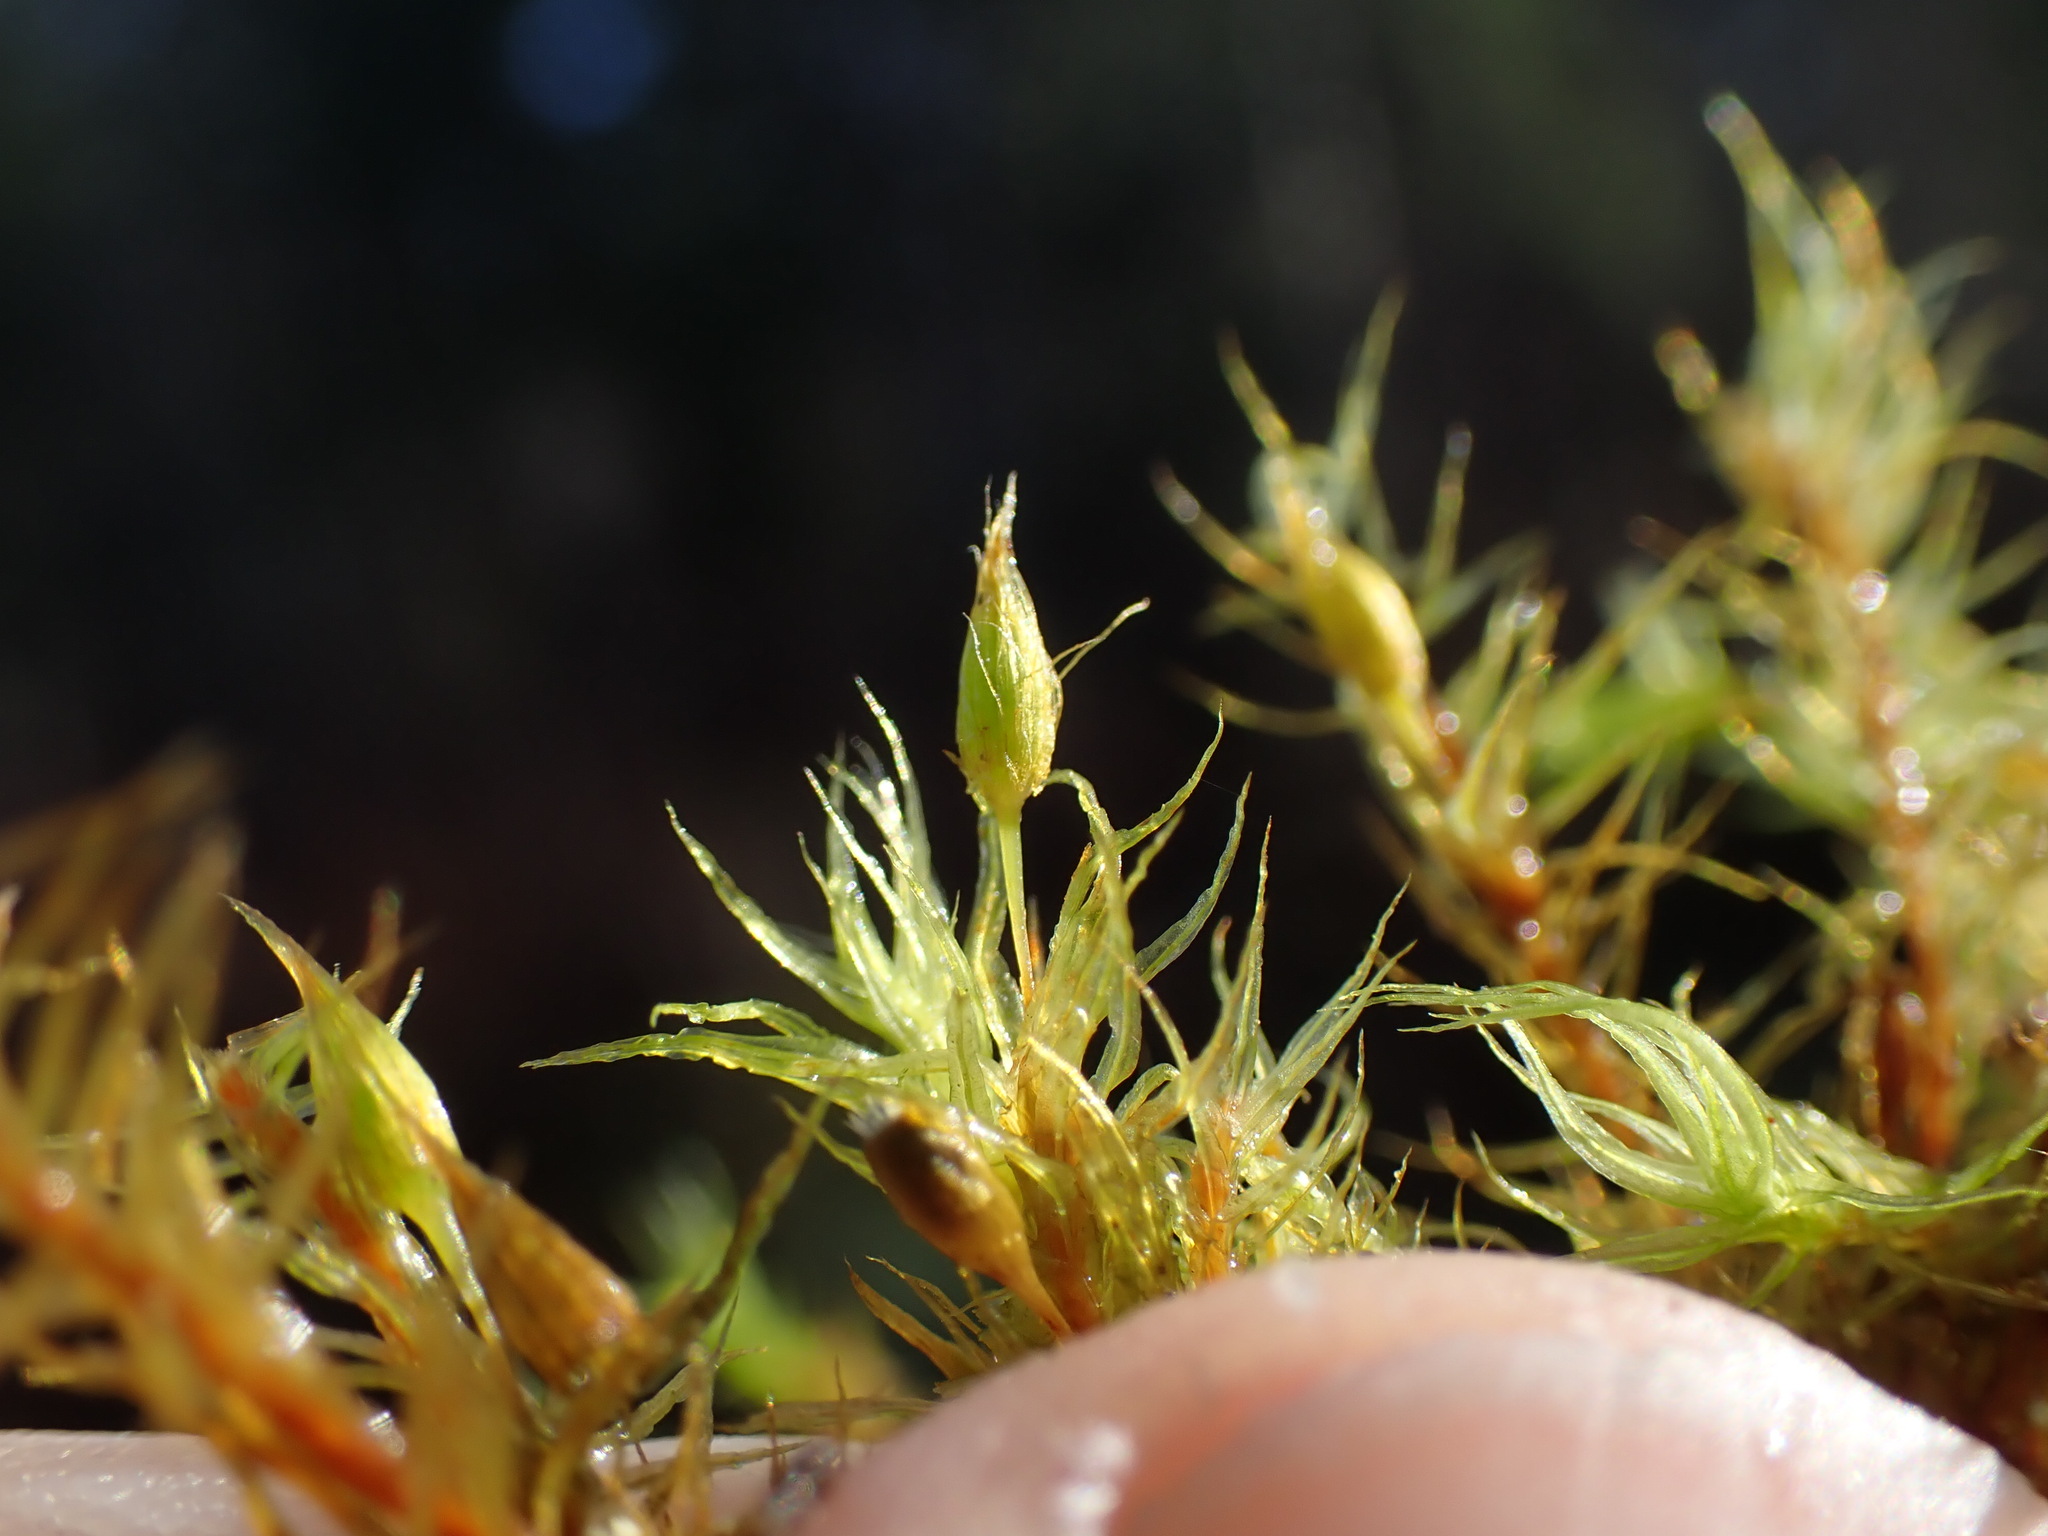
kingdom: Plantae
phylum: Bryophyta
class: Bryopsida
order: Orthotrichales
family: Orthotrichaceae
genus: Pulvigera
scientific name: Pulvigera pringlei
